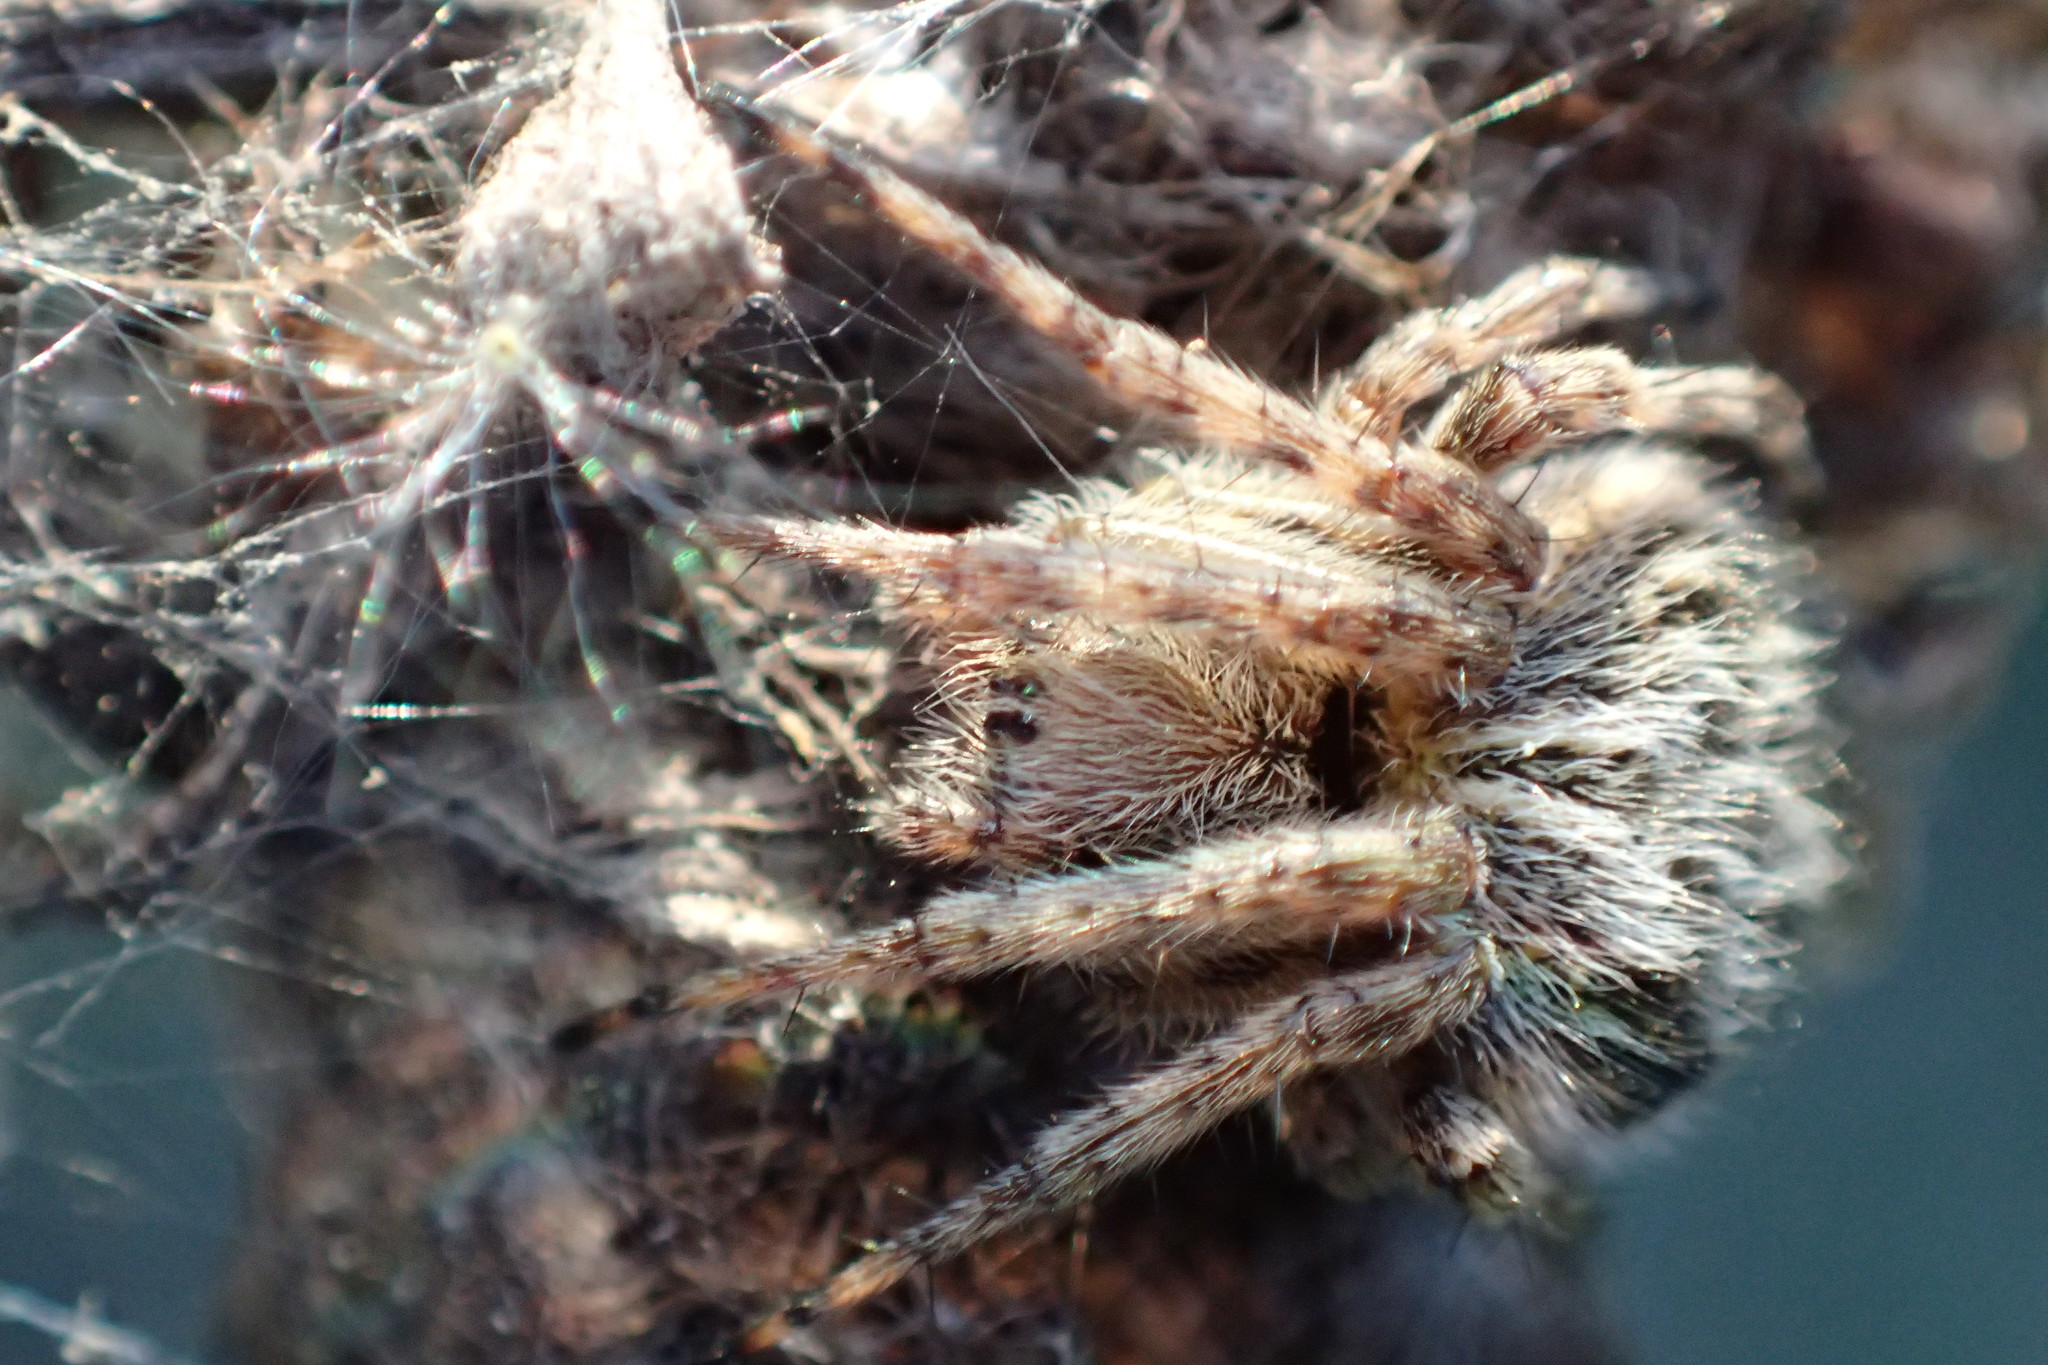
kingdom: Animalia
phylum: Arthropoda
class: Arachnida
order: Araneae
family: Araneidae
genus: Agalenatea
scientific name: Agalenatea redii
